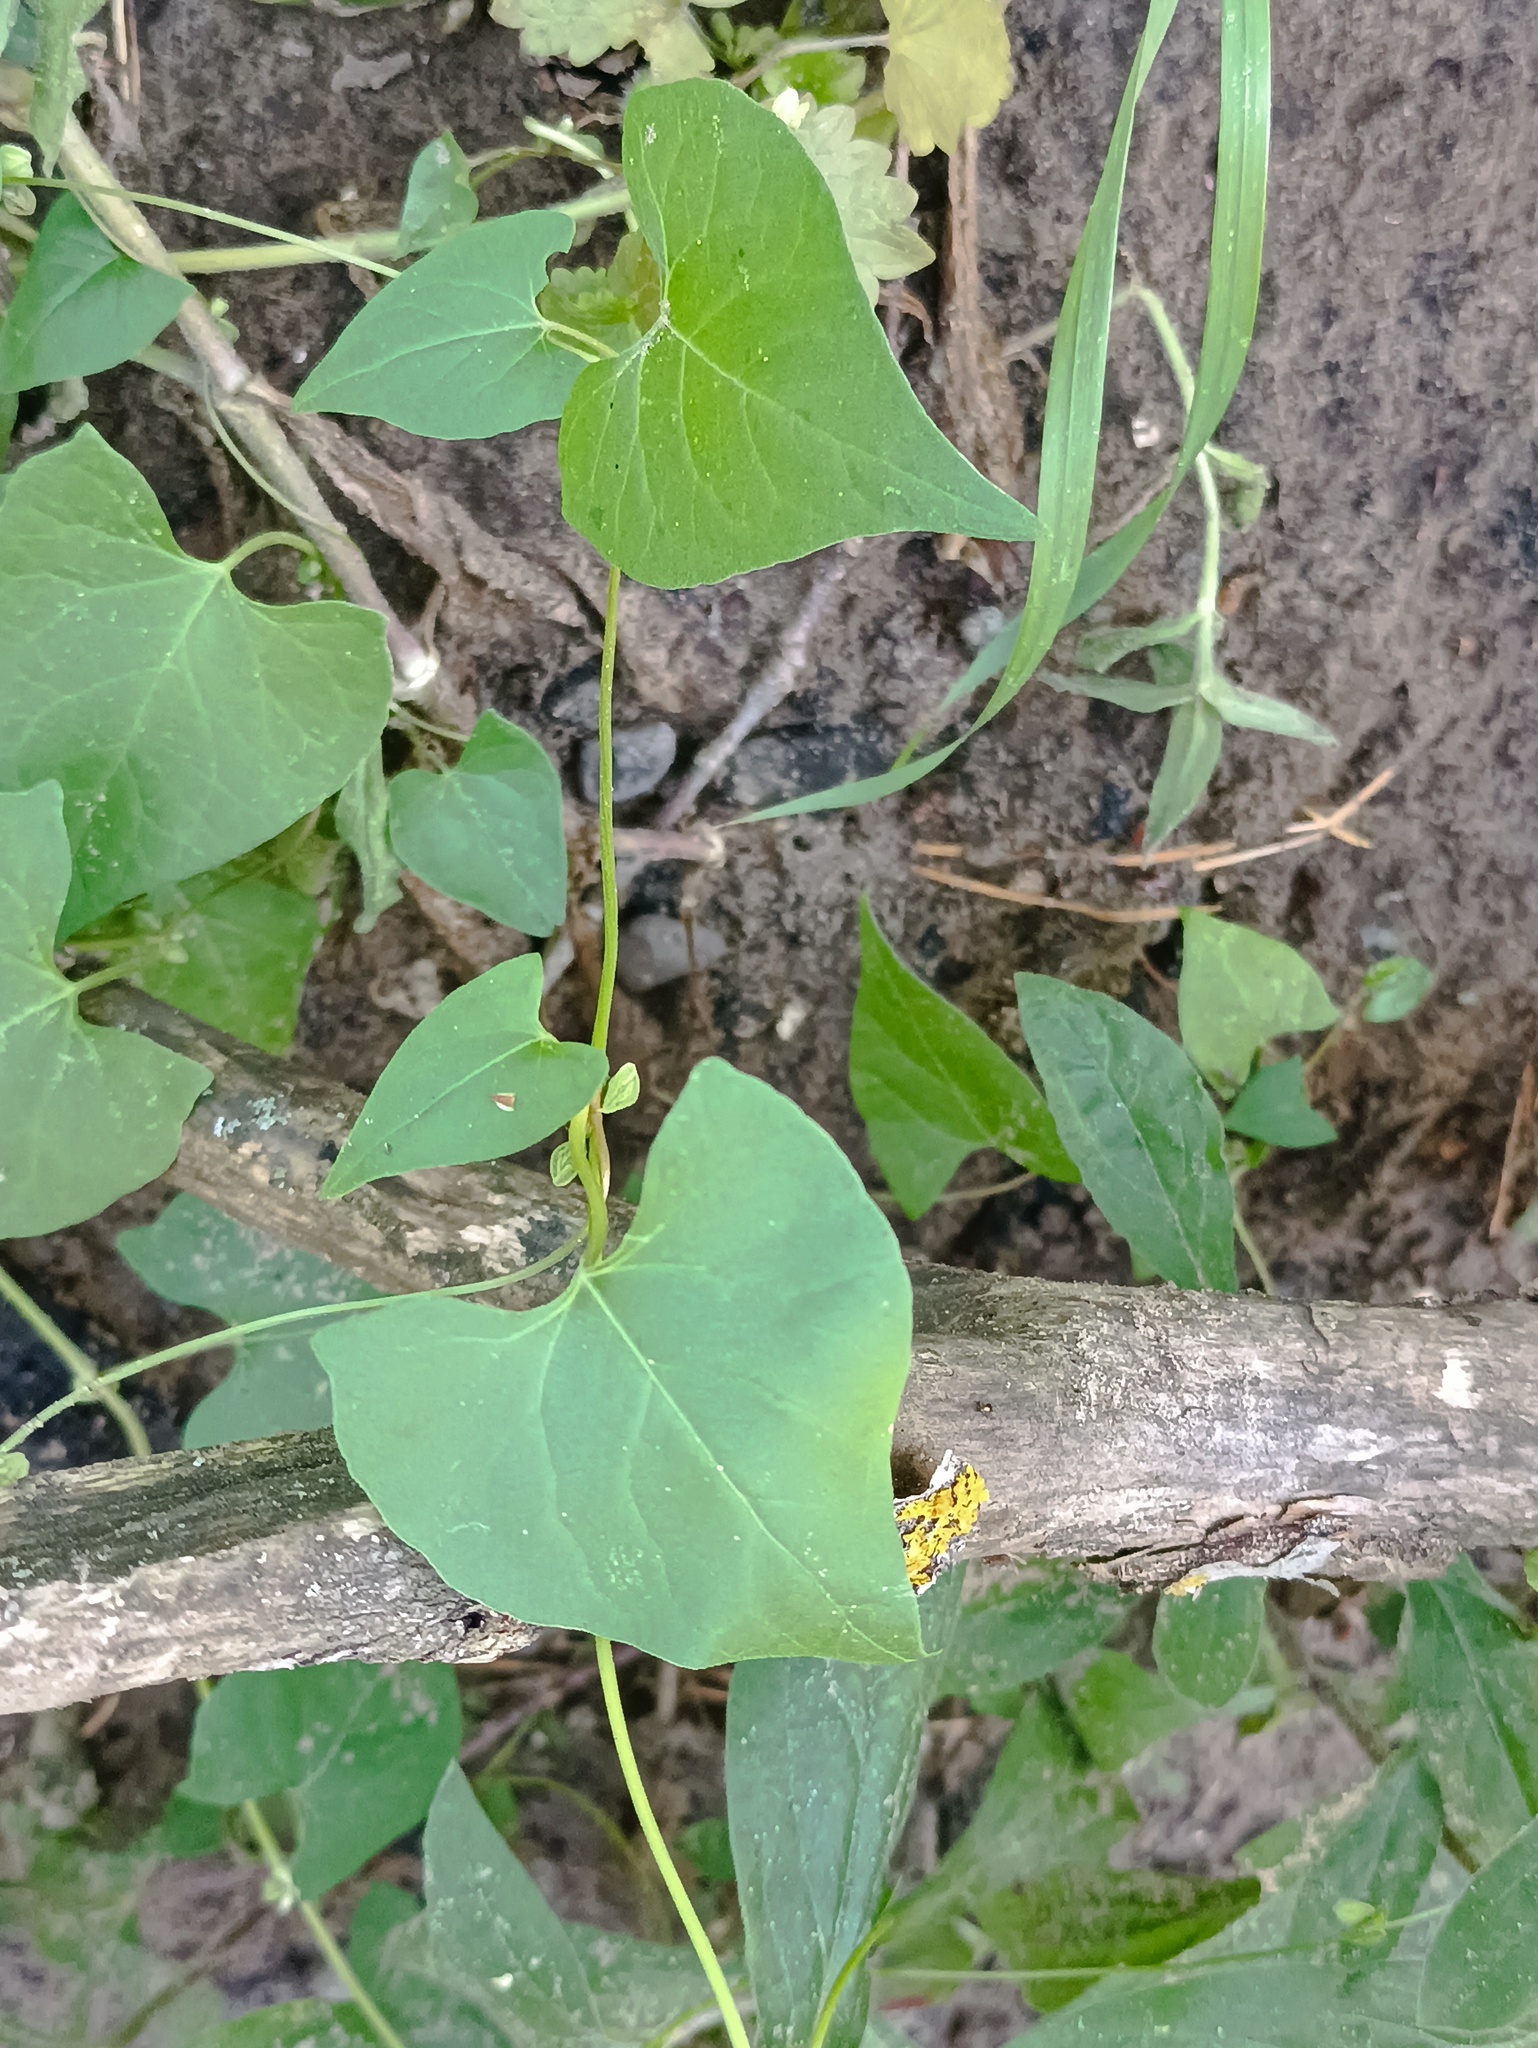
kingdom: Plantae
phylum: Tracheophyta
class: Magnoliopsida
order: Caryophyllales
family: Polygonaceae
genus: Fallopia
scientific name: Fallopia convolvulus
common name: Black bindweed
